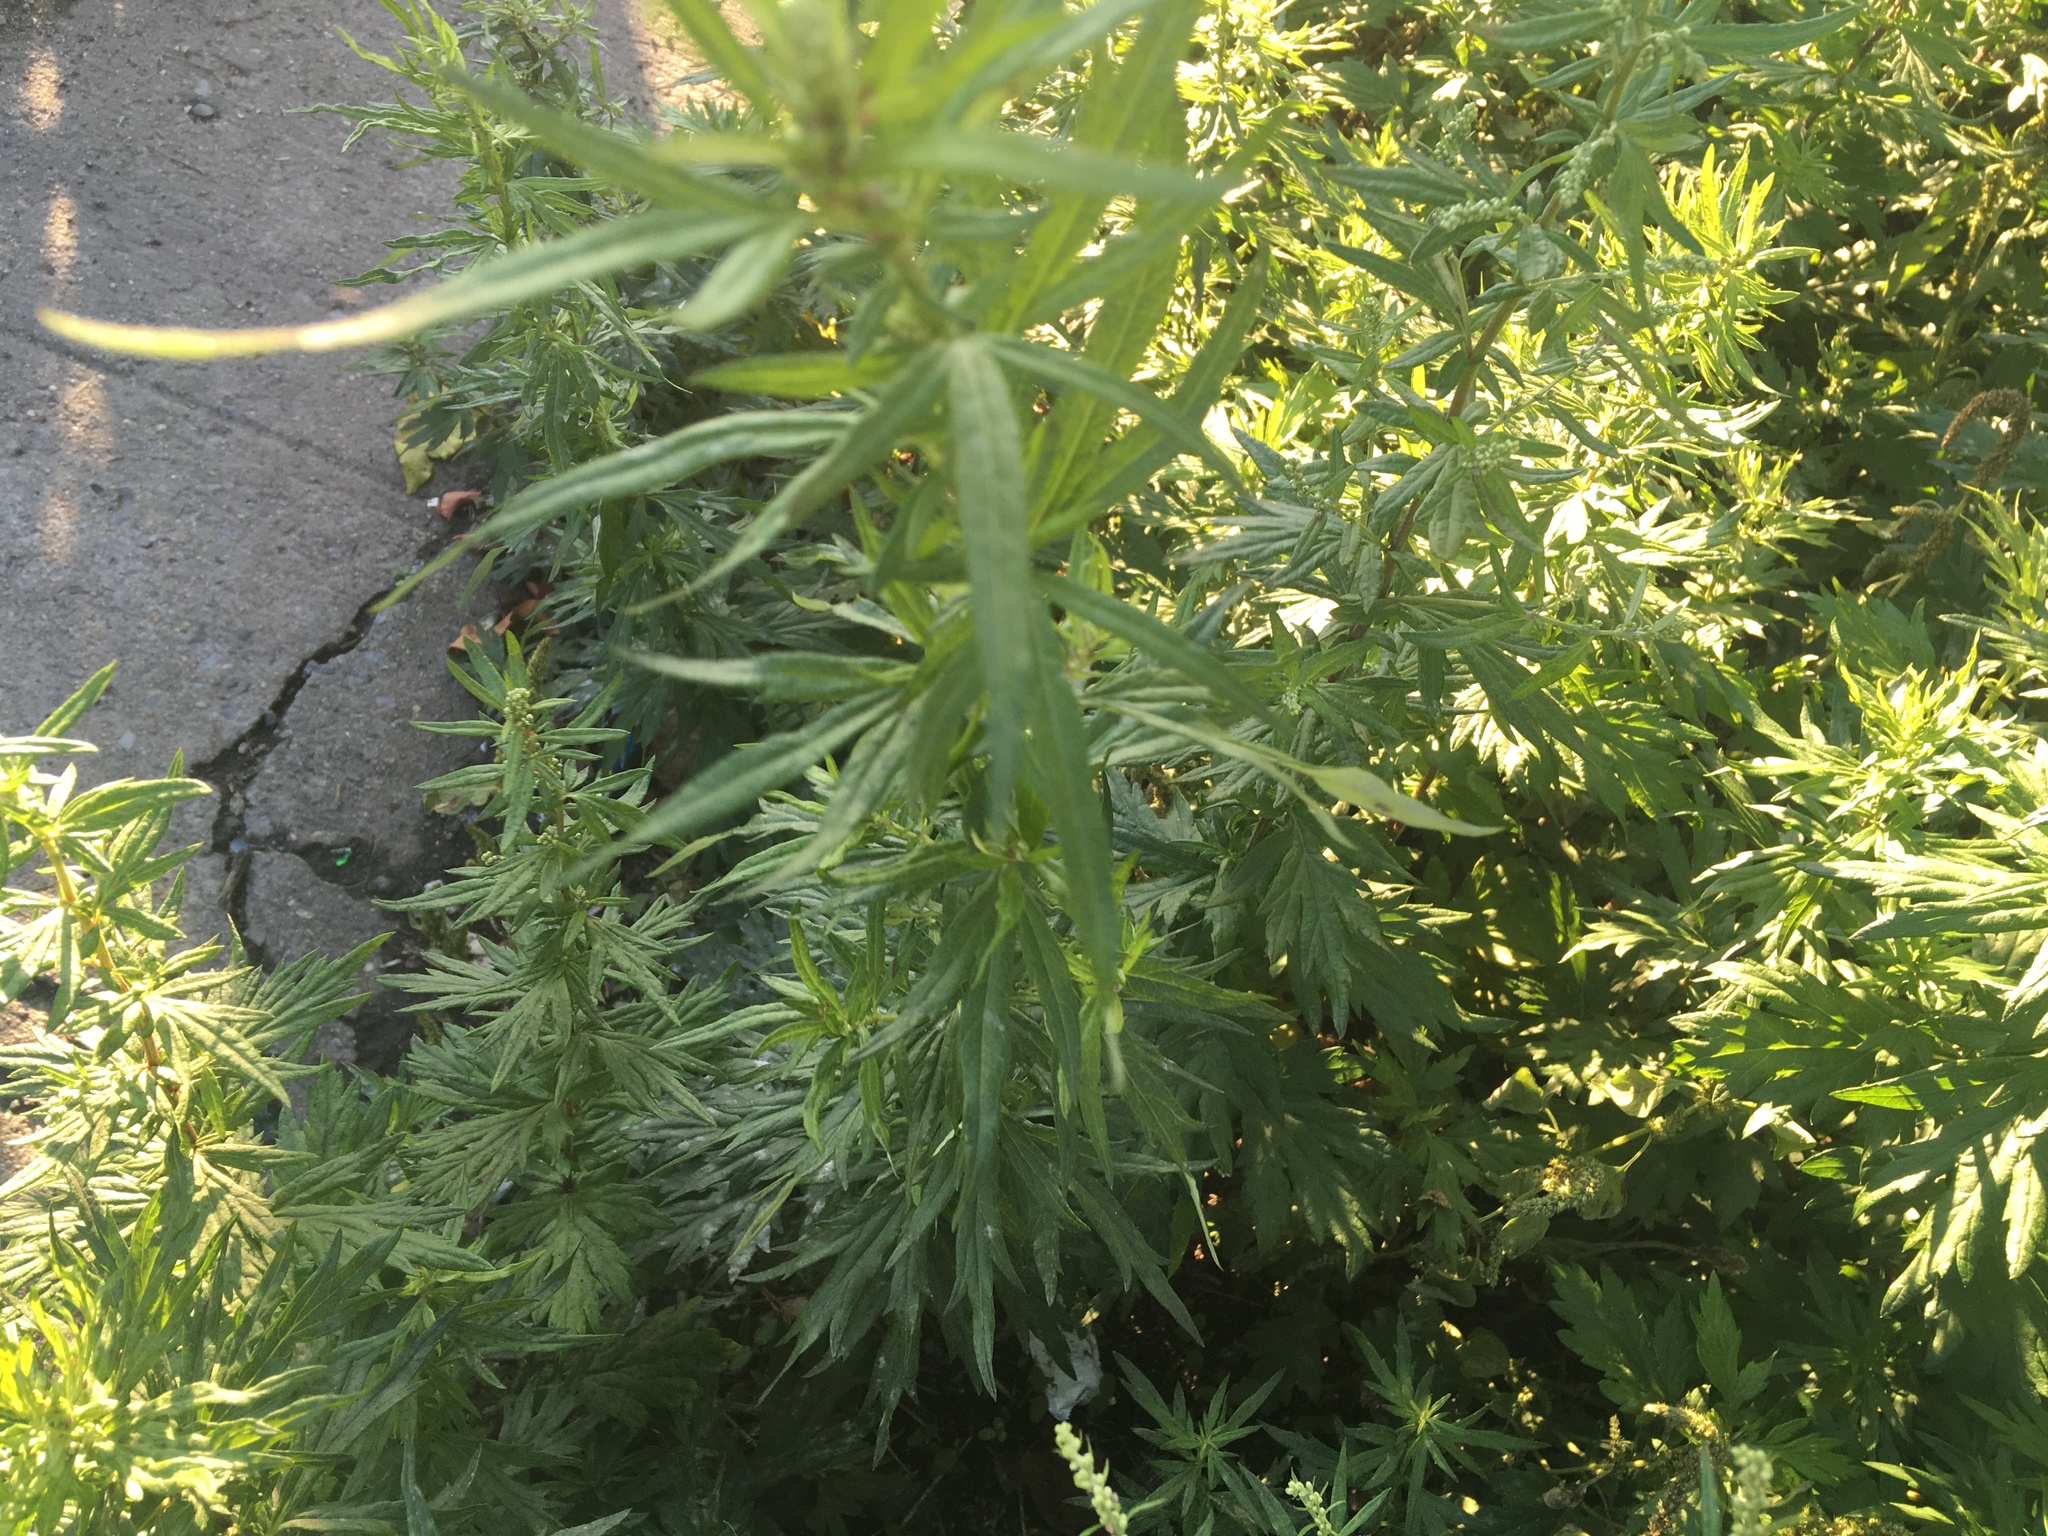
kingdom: Plantae
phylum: Tracheophyta
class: Magnoliopsida
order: Asterales
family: Asteraceae
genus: Artemisia
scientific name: Artemisia vulgaris
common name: Mugwort
